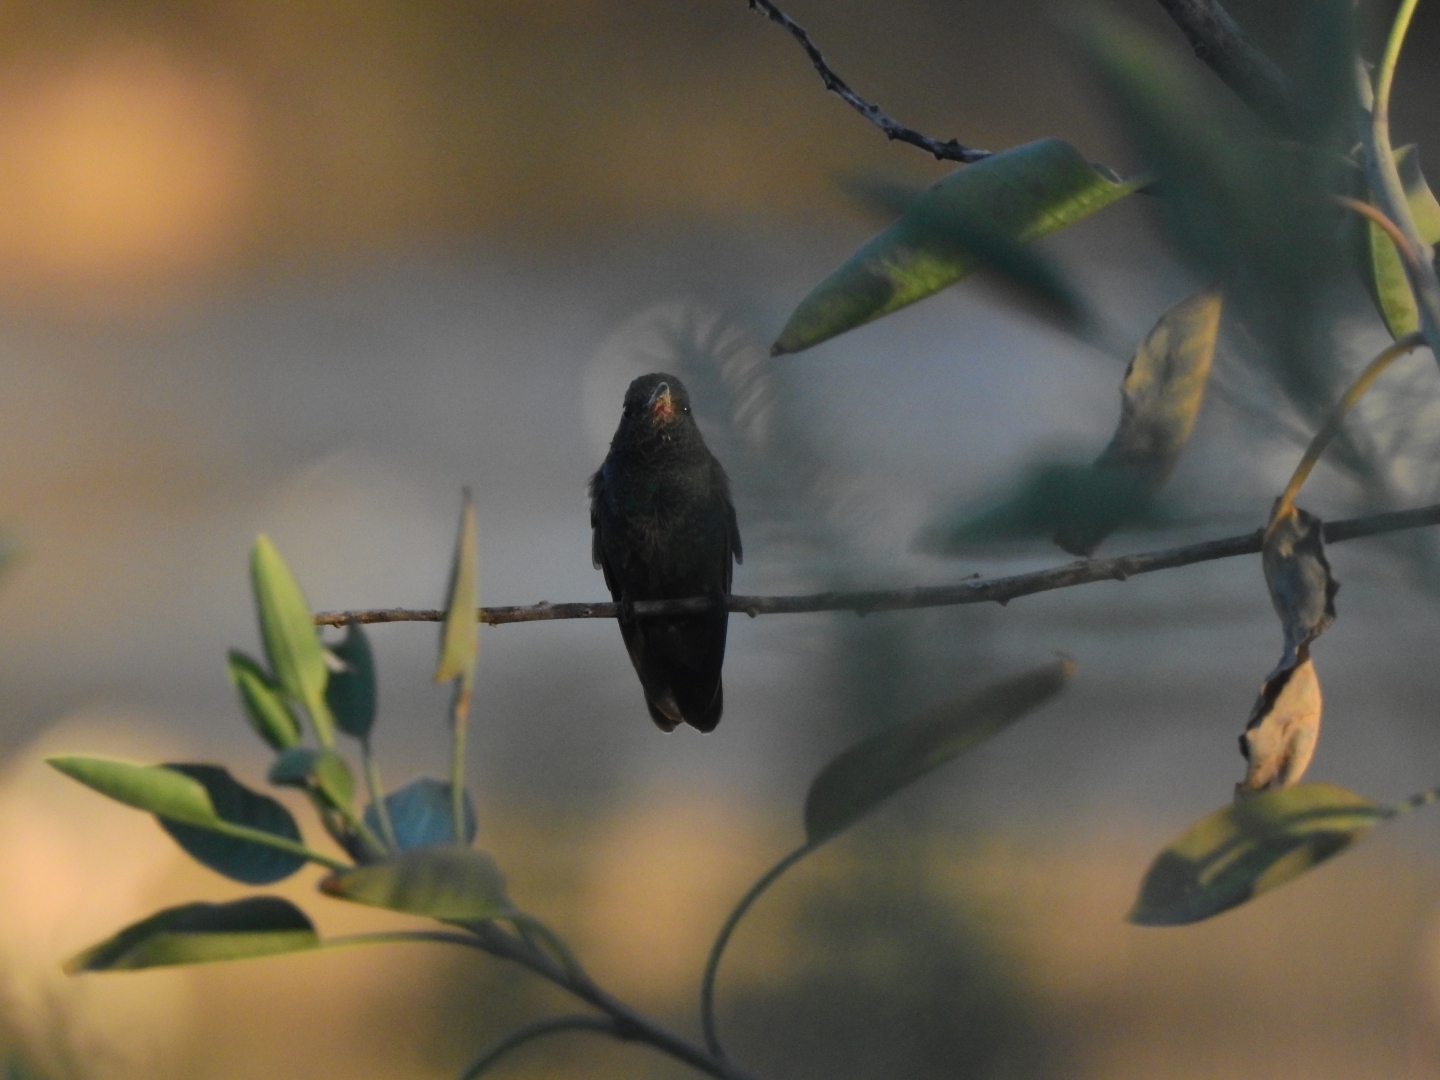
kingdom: Animalia
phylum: Chordata
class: Aves
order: Apodiformes
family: Trochilidae
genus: Cynanthus
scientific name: Cynanthus latirostris
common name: Broad-billed hummingbird
